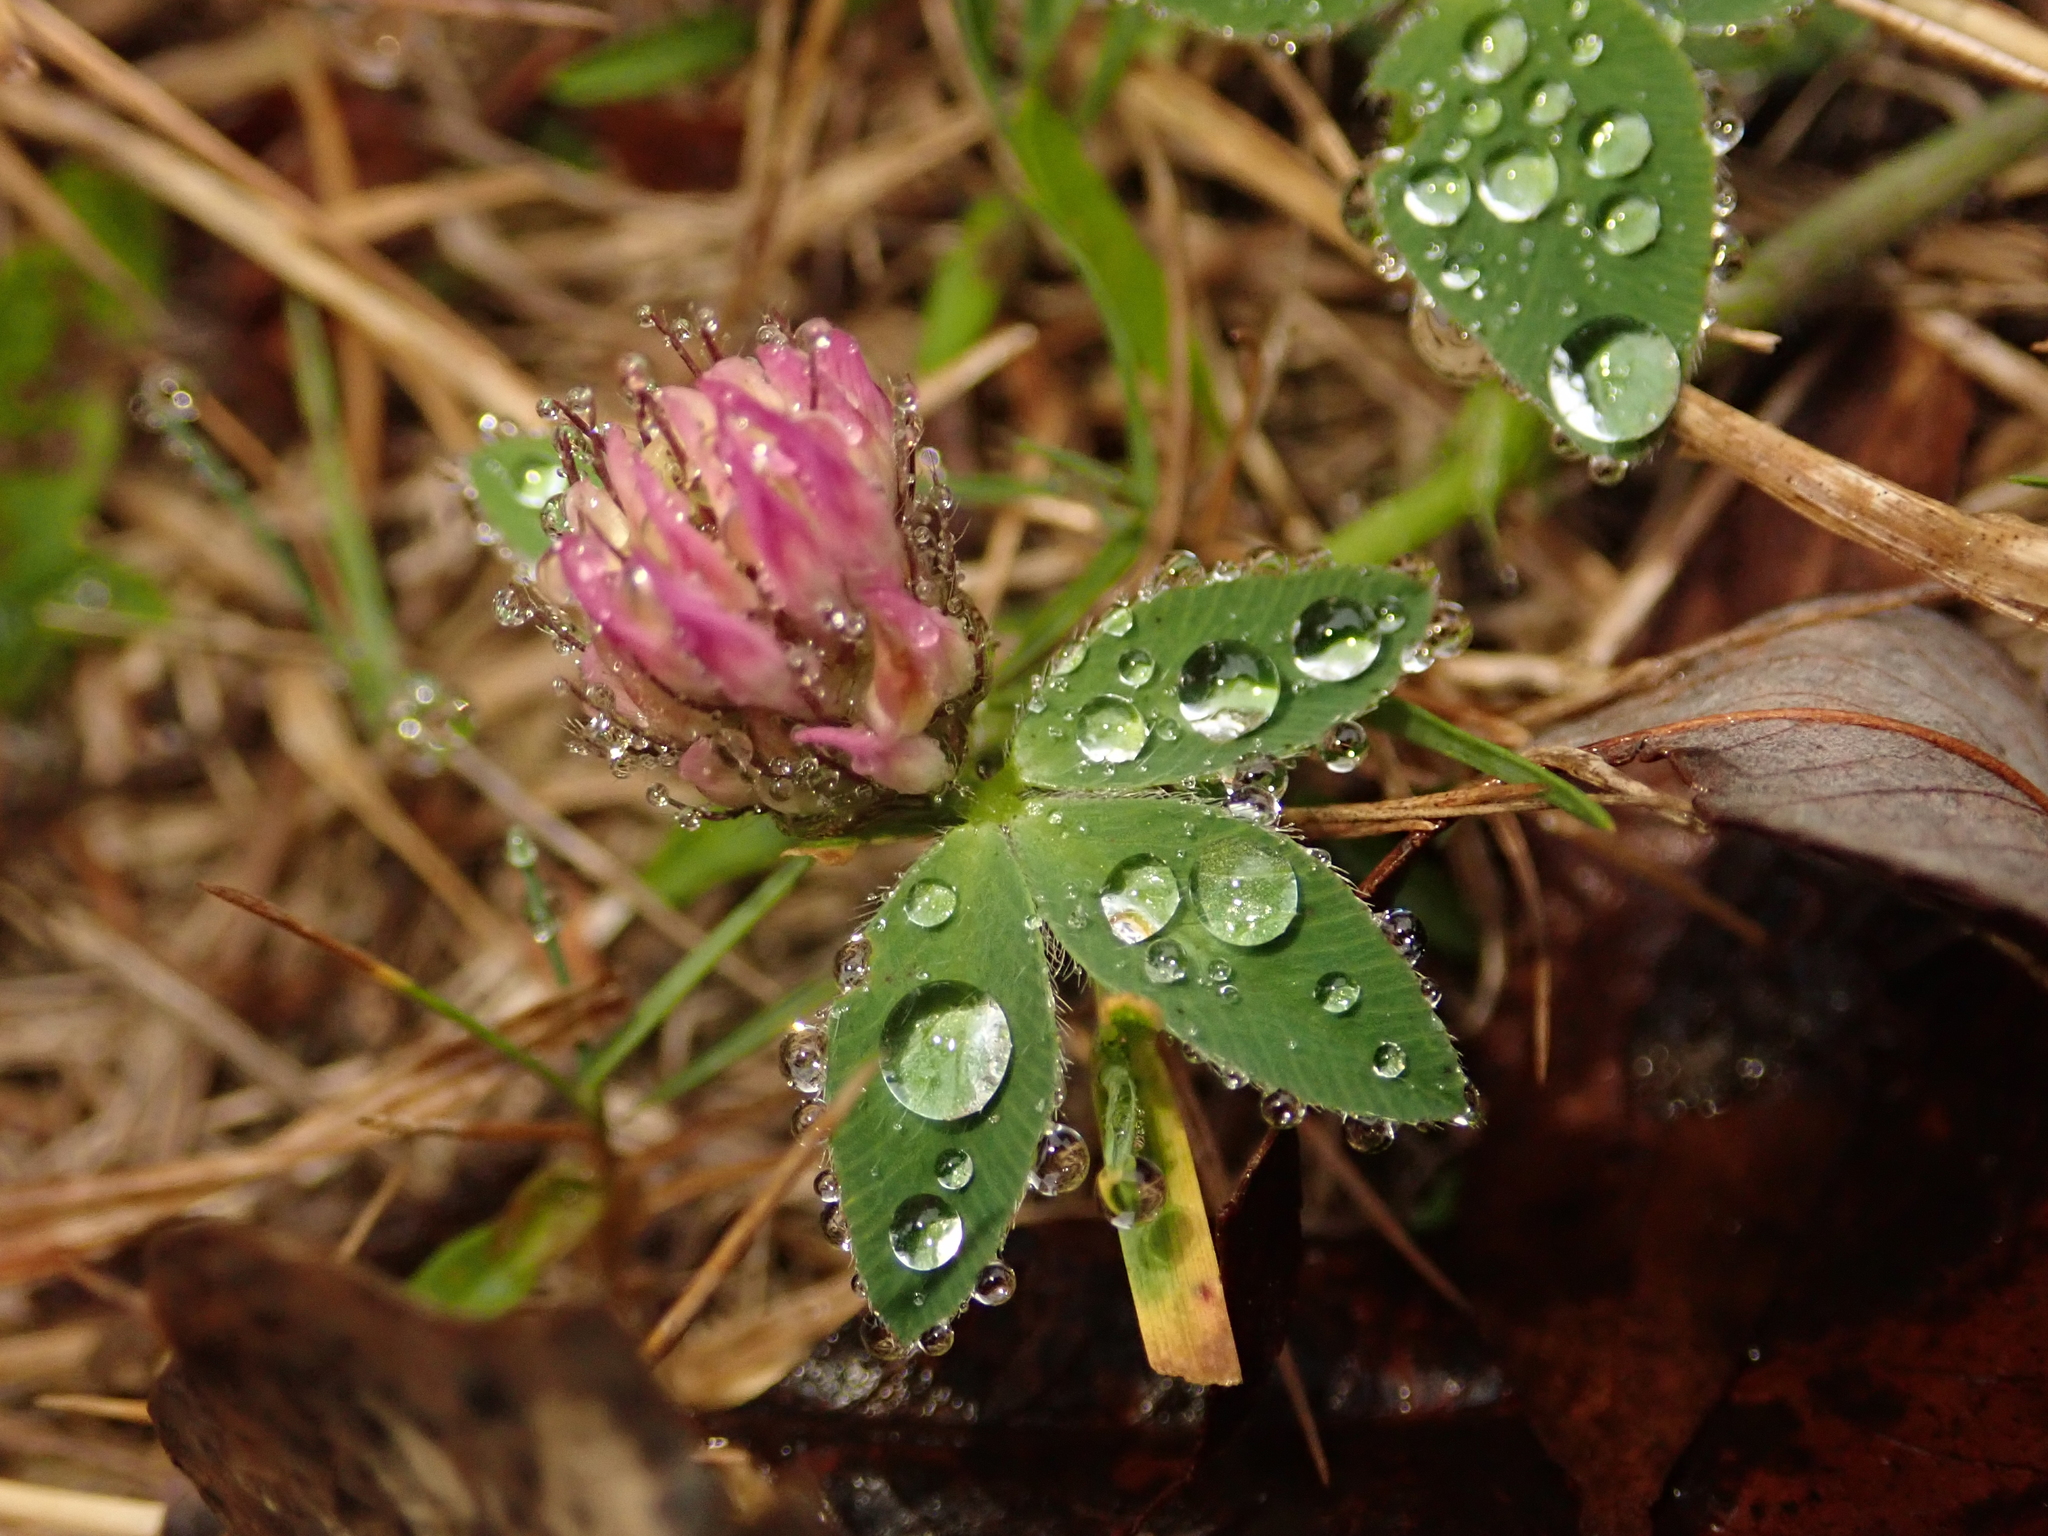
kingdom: Plantae
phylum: Tracheophyta
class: Magnoliopsida
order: Fabales
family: Fabaceae
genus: Trifolium
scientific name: Trifolium pratense
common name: Red clover
